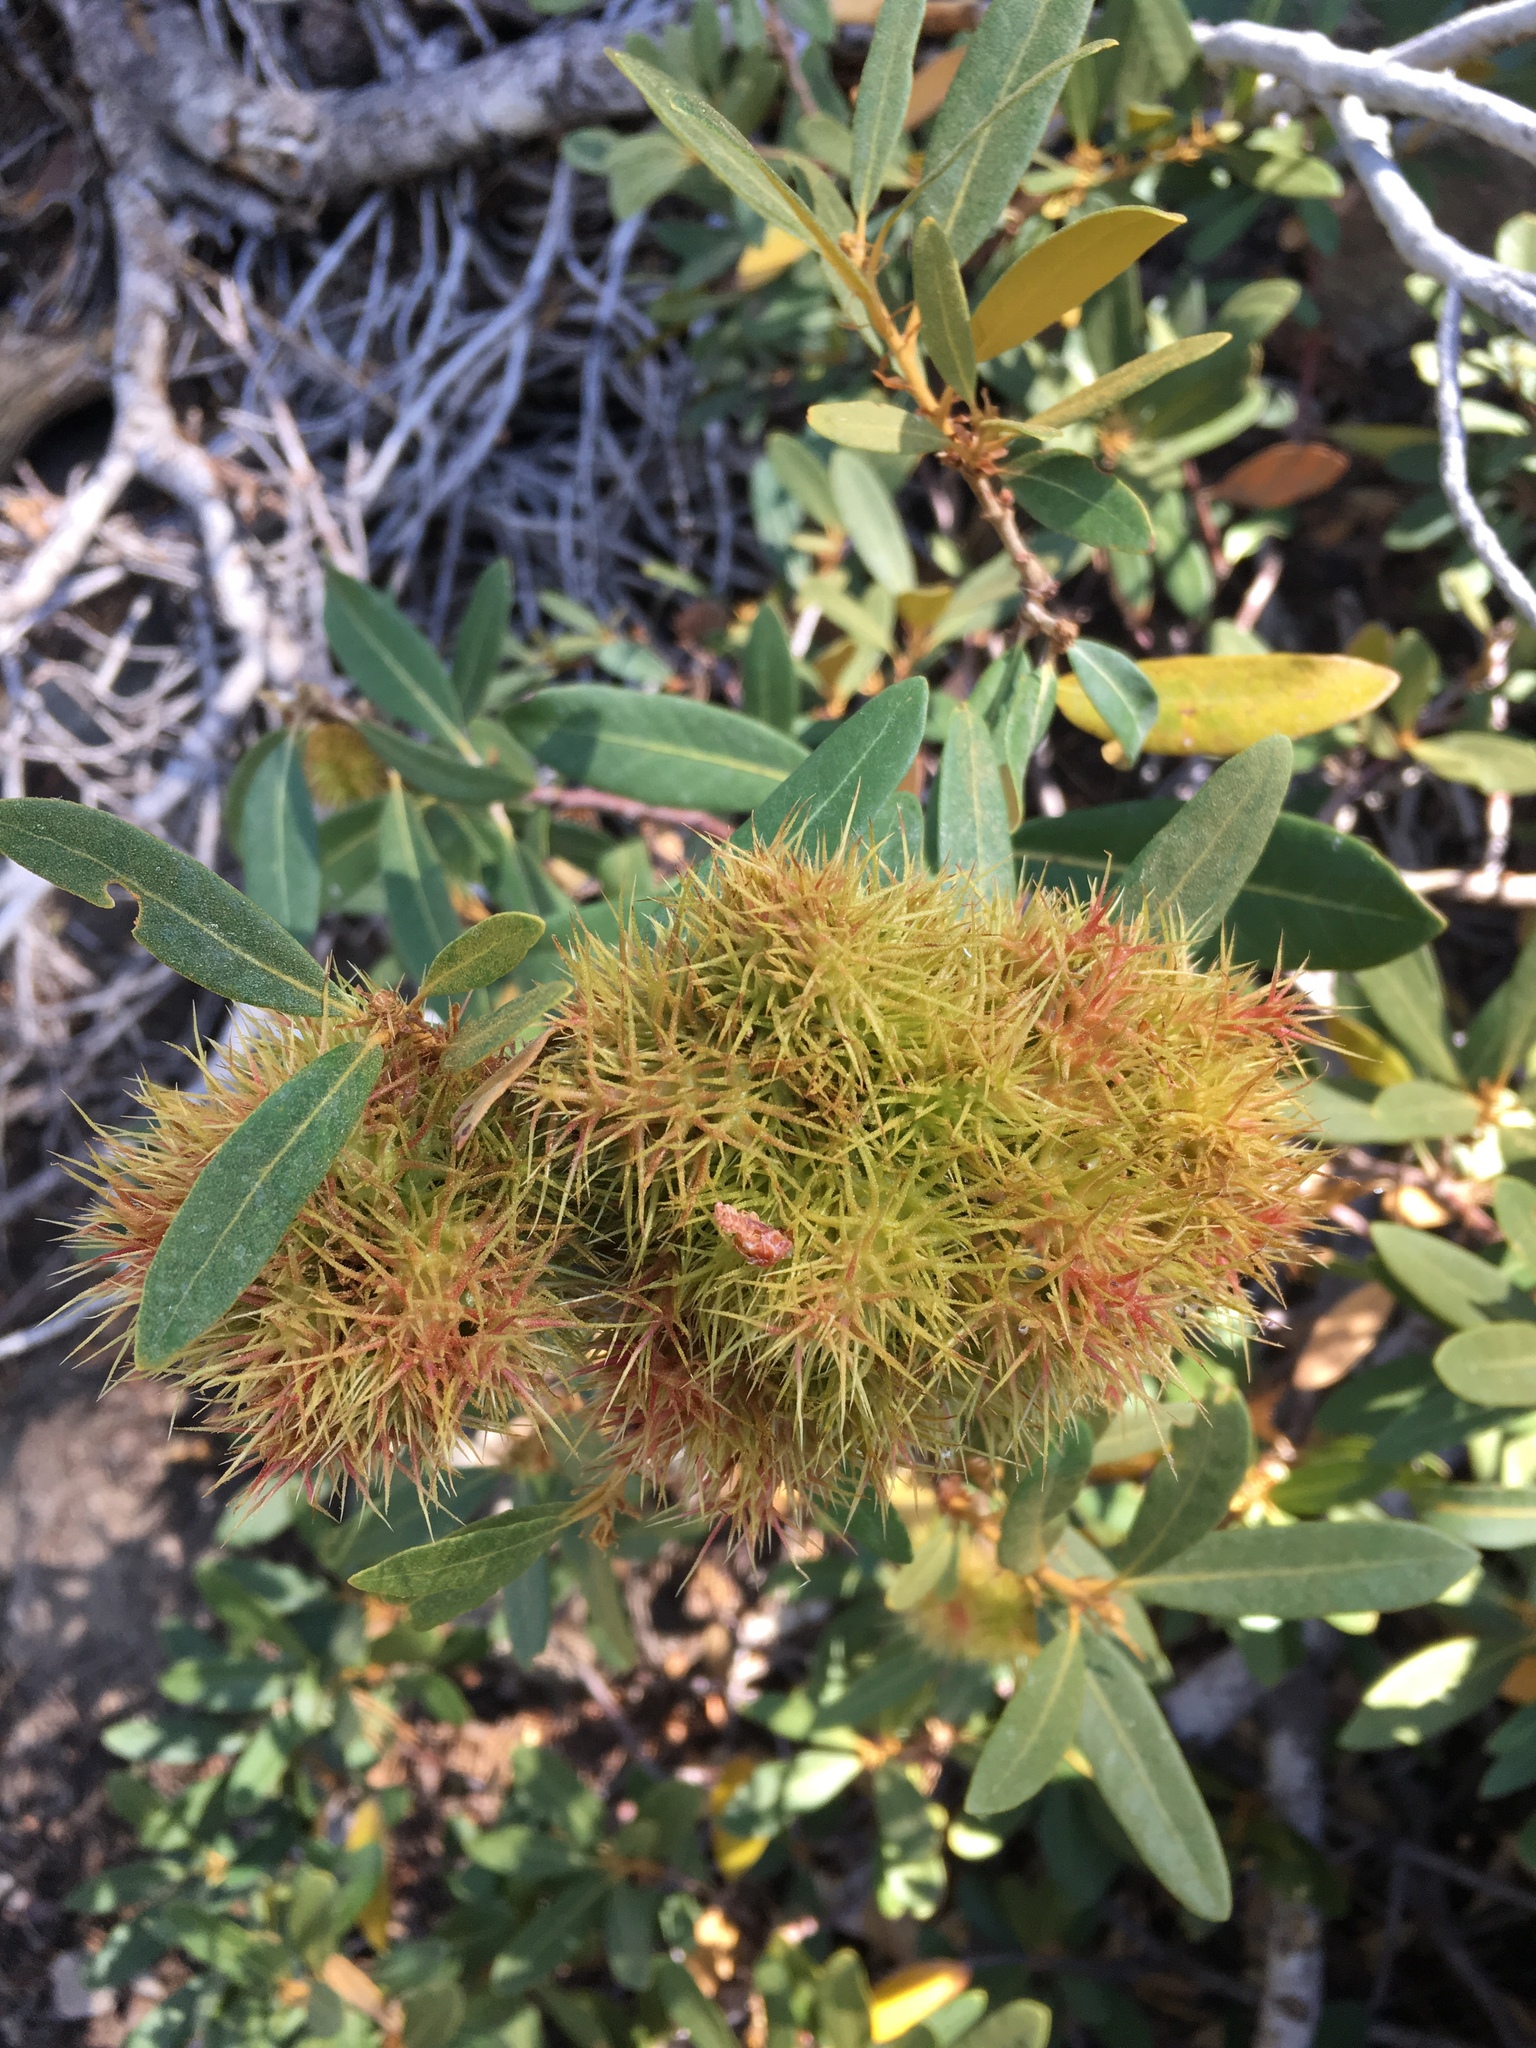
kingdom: Plantae
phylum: Tracheophyta
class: Magnoliopsida
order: Fagales
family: Fagaceae
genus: Chrysolepis
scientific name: Chrysolepis sempervirens
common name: Bush chinquapin
